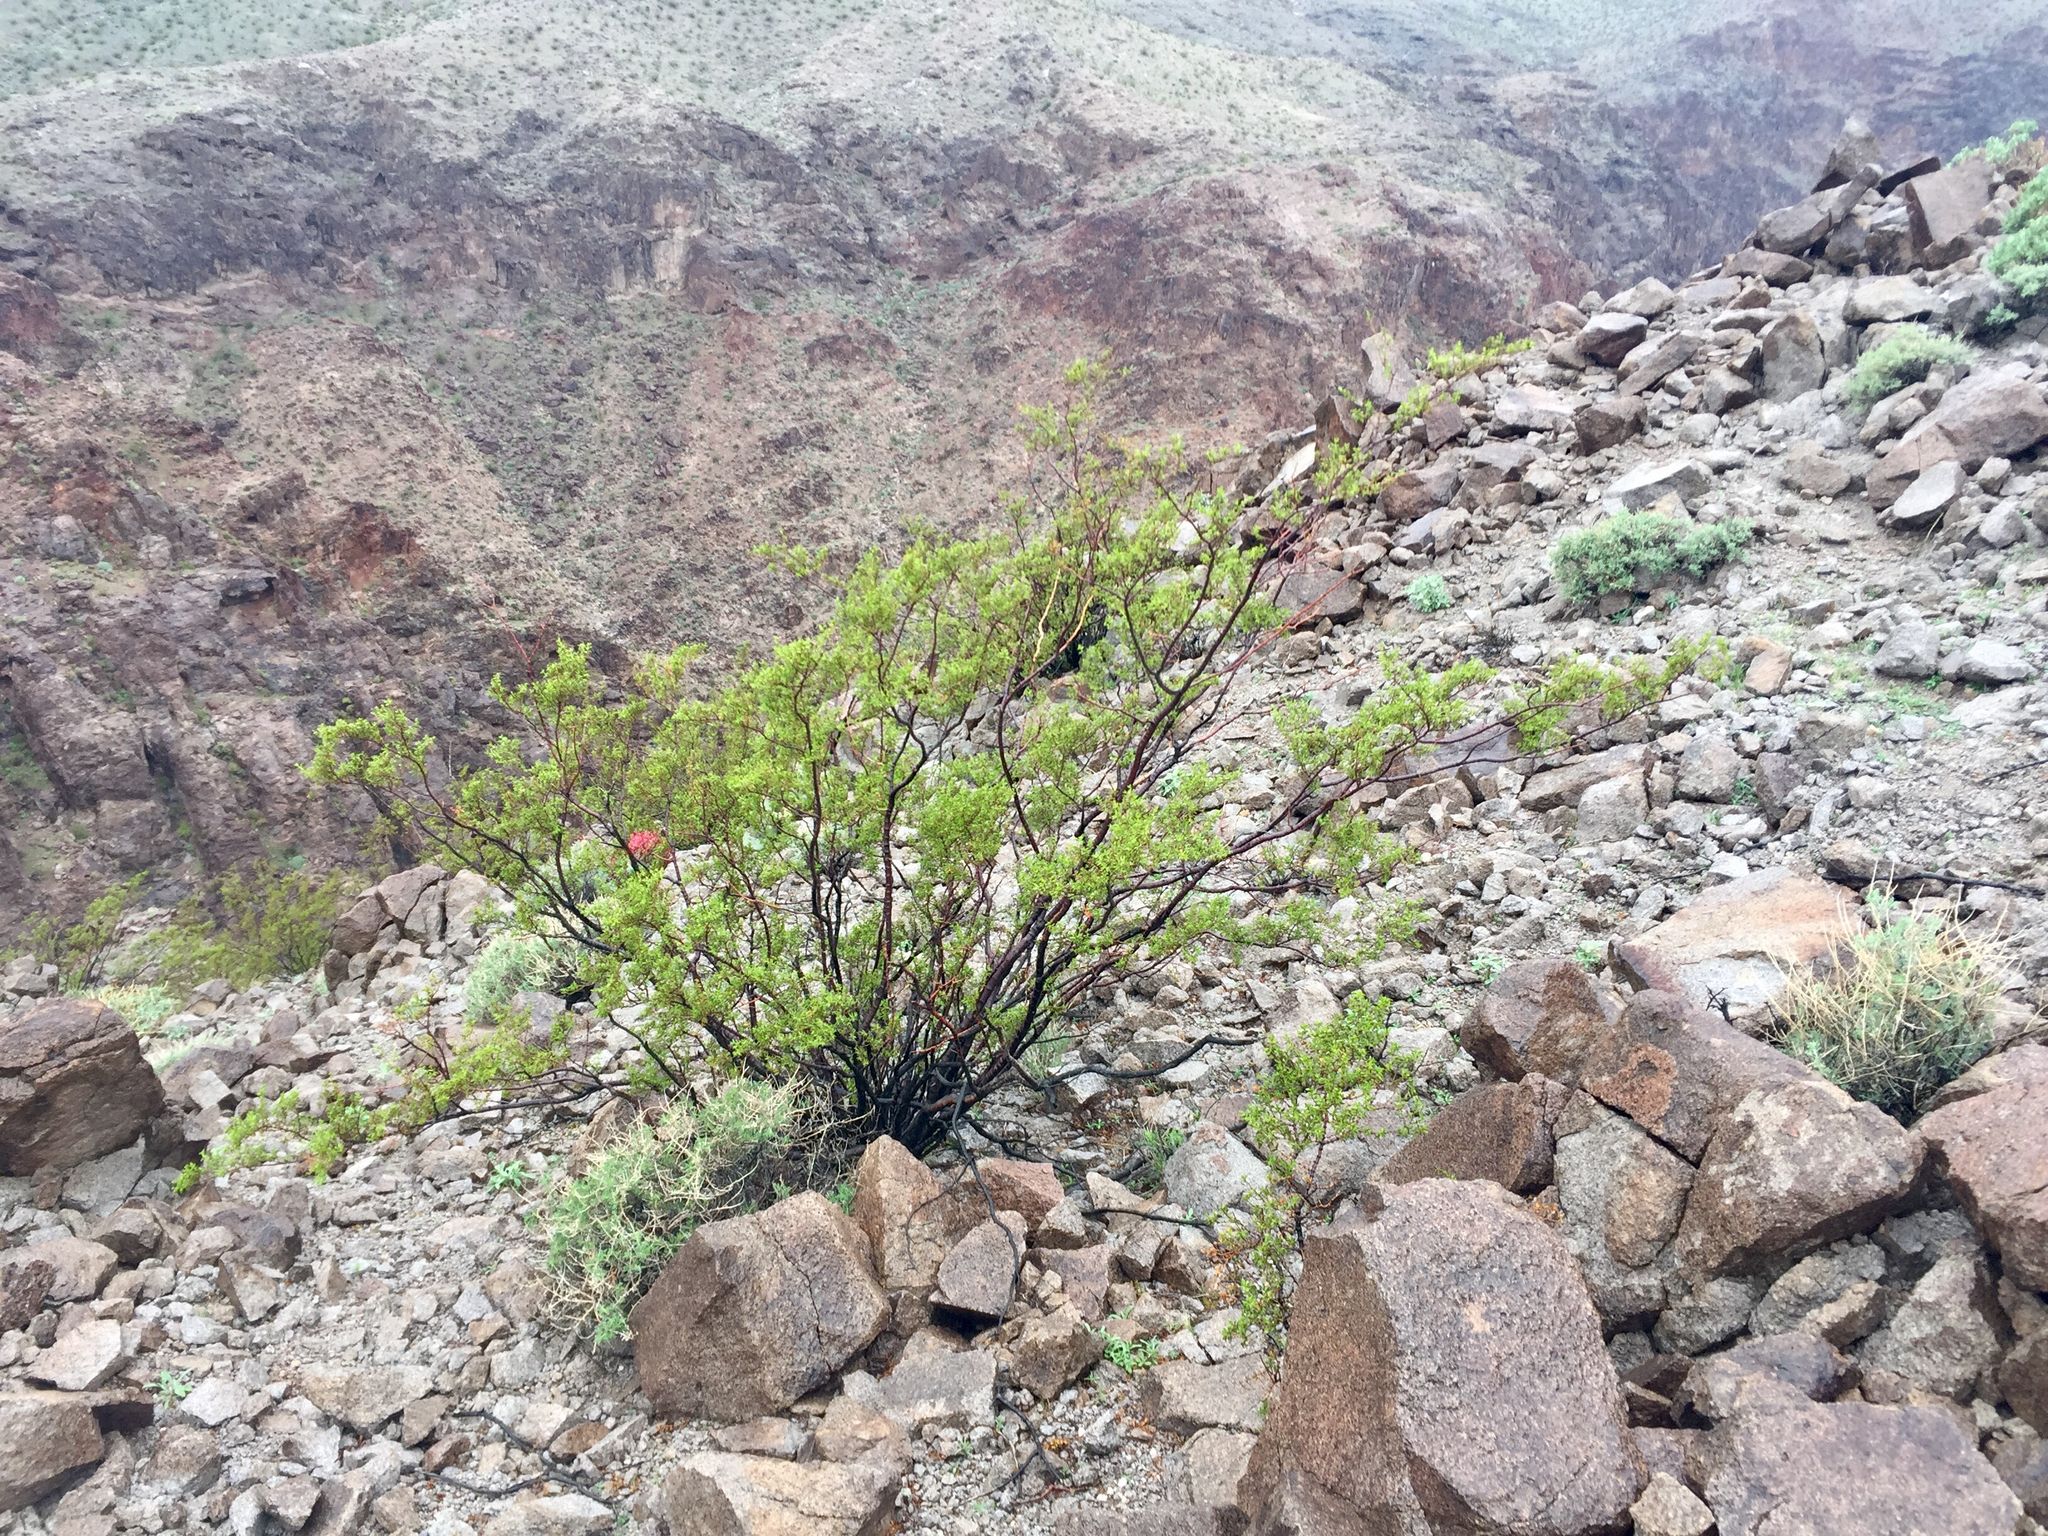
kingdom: Plantae
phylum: Tracheophyta
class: Magnoliopsida
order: Zygophyllales
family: Zygophyllaceae
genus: Larrea
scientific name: Larrea tridentata
